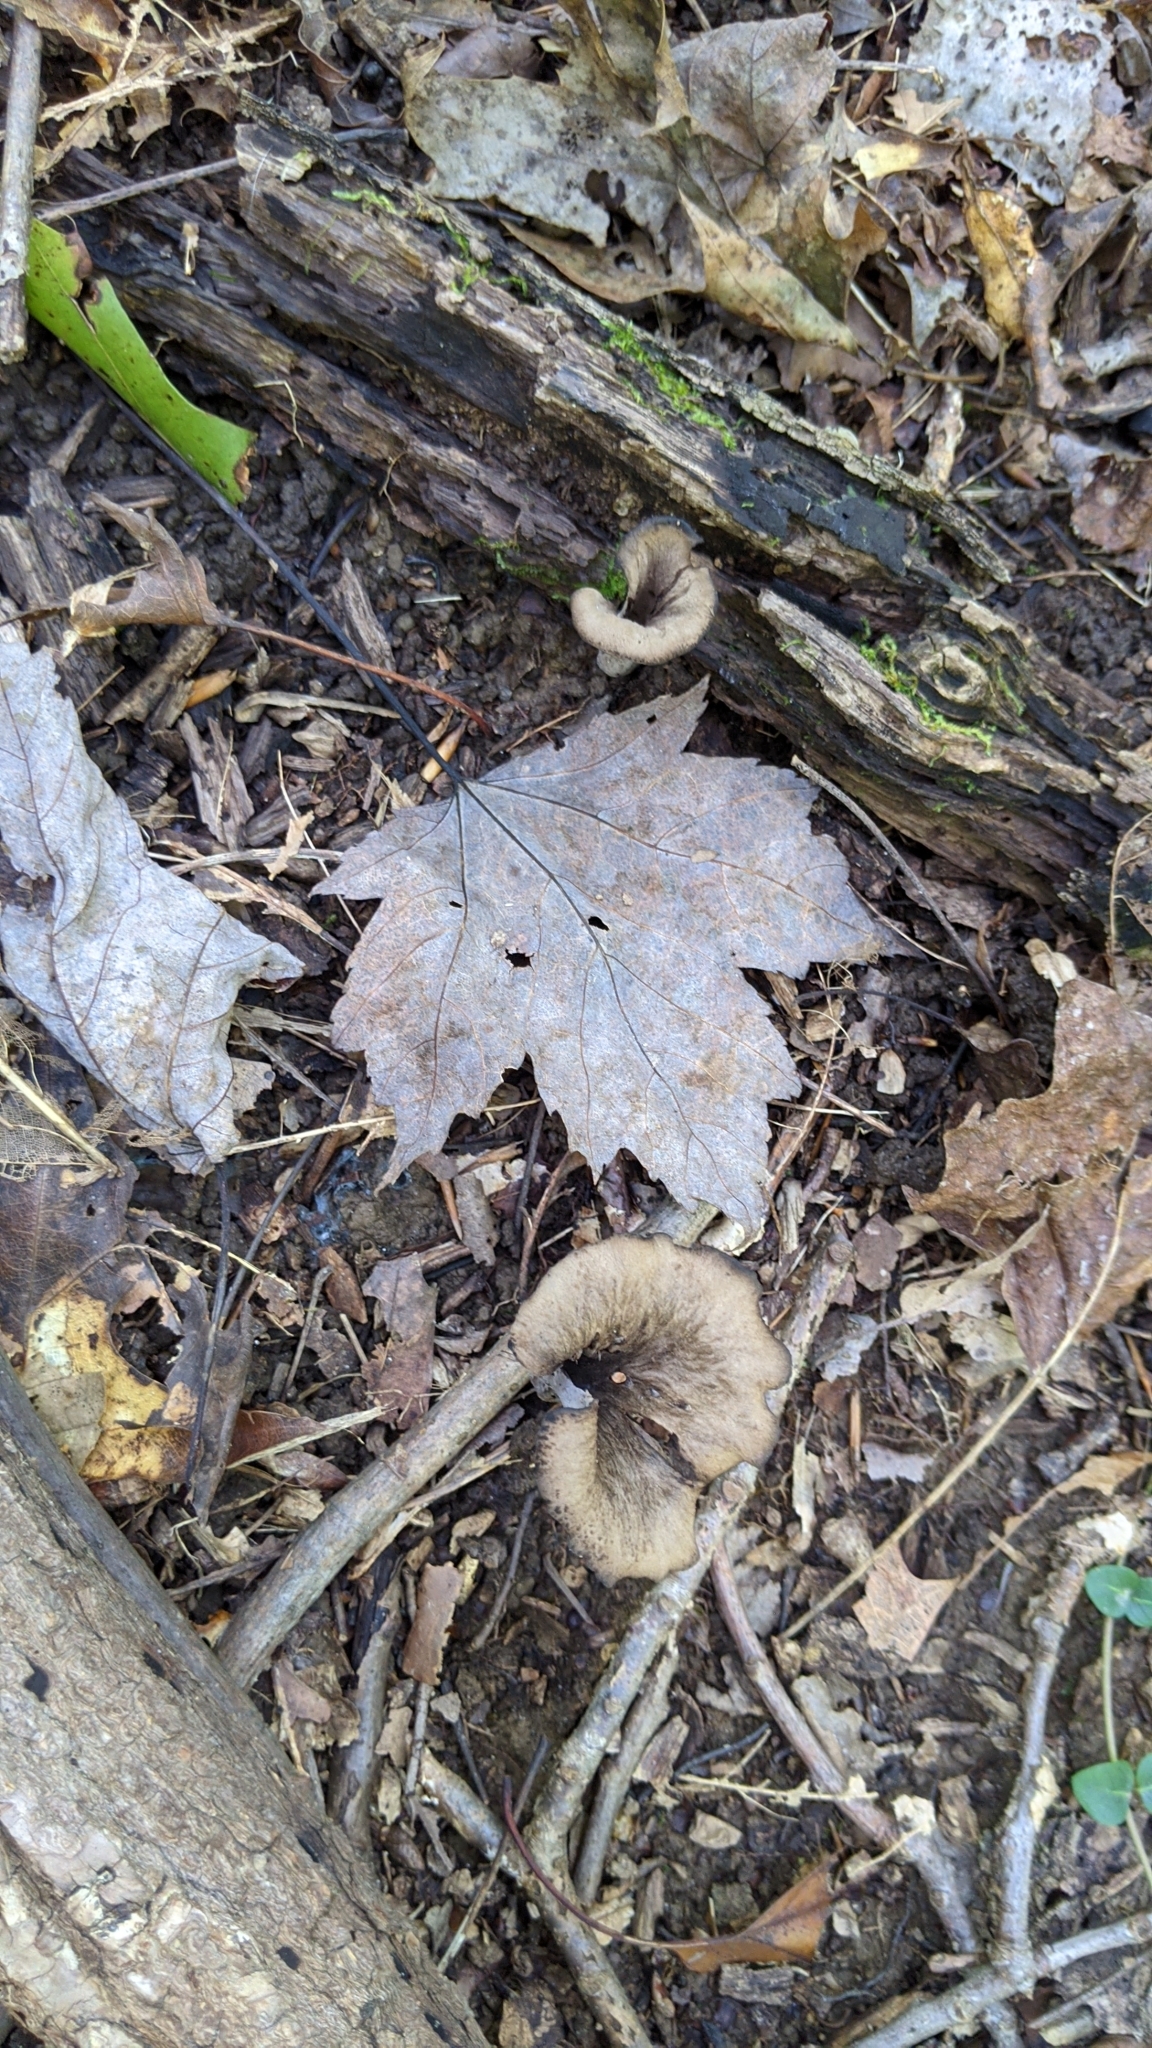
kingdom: Fungi
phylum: Basidiomycota
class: Agaricomycetes
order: Cantharellales
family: Hydnaceae
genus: Craterellus
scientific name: Craterellus cornucopioides
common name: Horn of plenty
